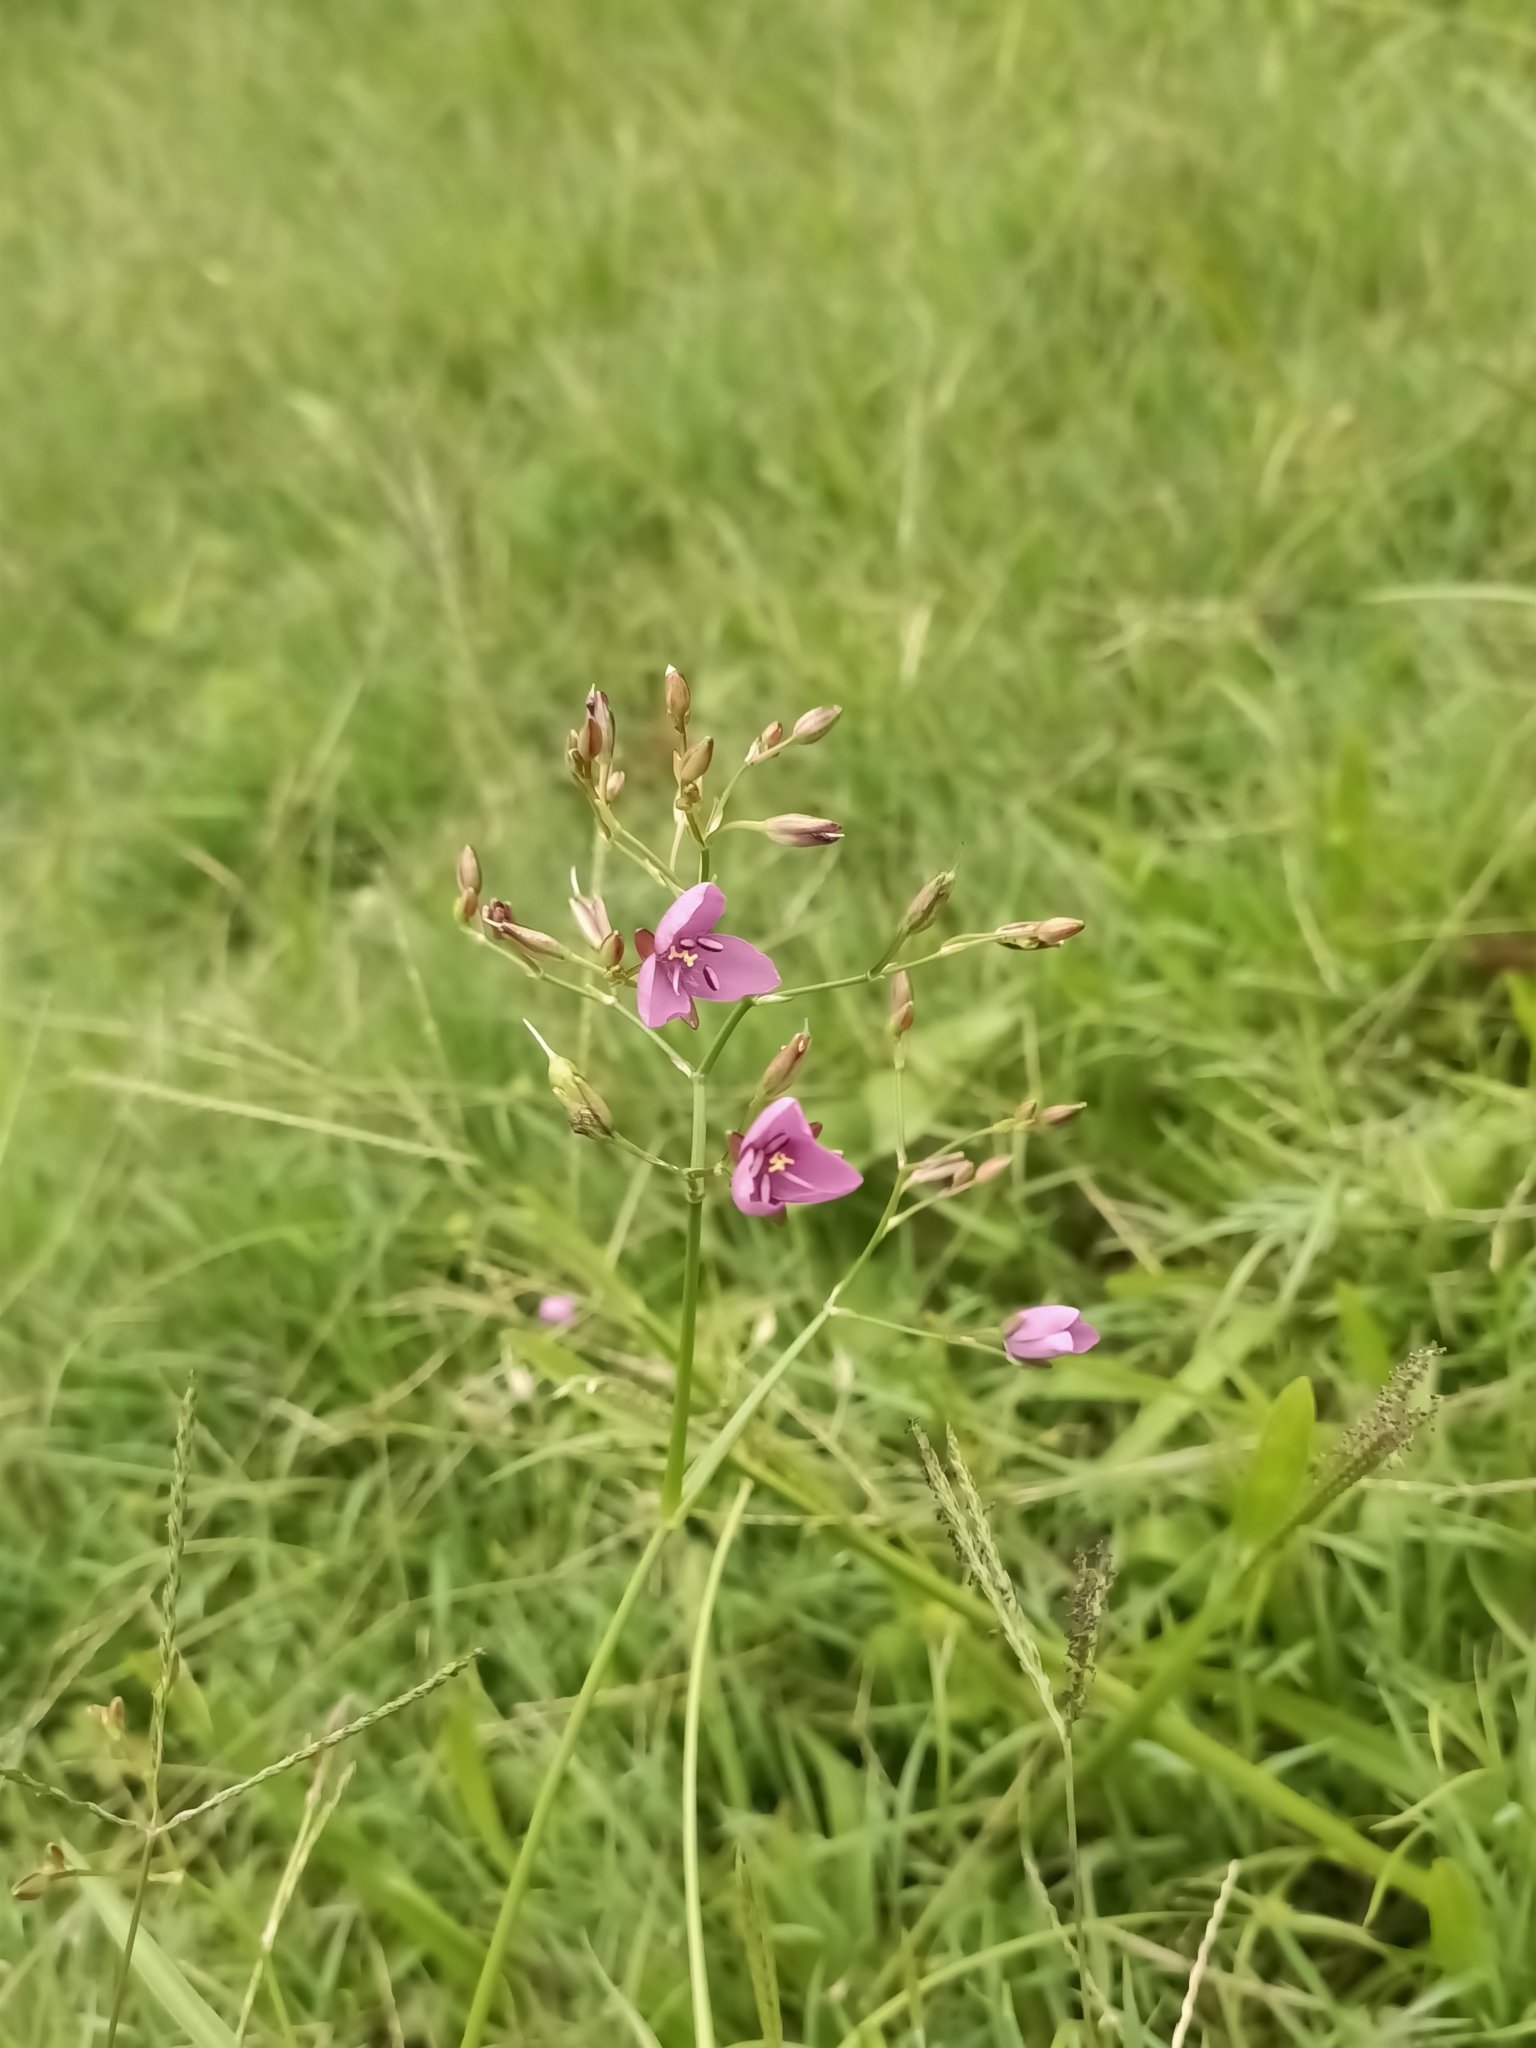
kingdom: Plantae
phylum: Tracheophyta
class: Liliopsida
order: Commelinales
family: Commelinaceae
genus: Murdannia
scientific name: Murdannia graminea
